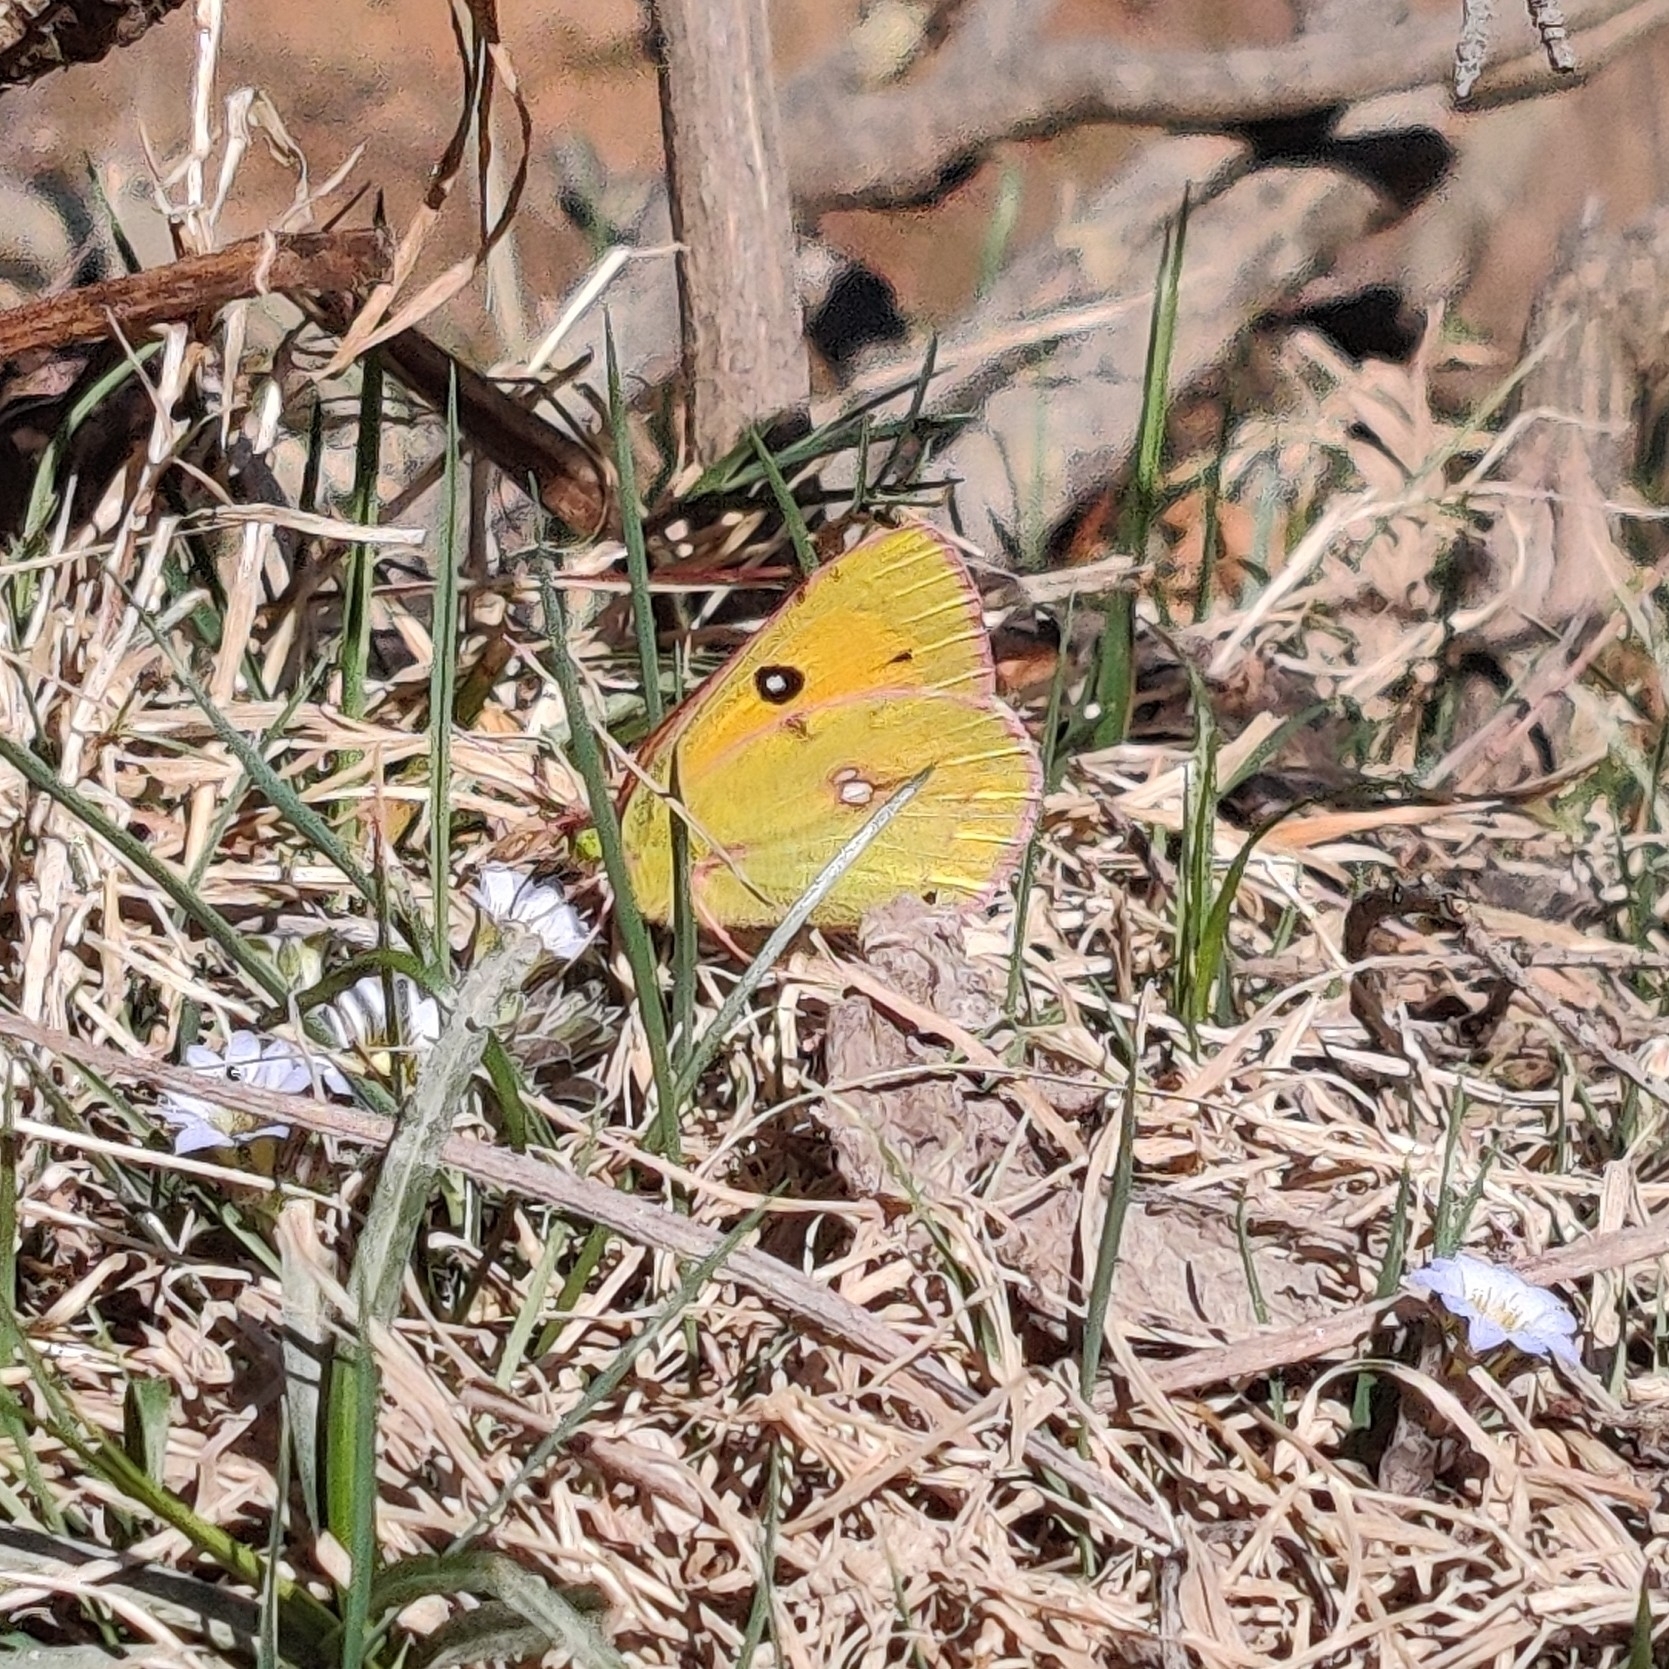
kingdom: Animalia
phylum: Arthropoda
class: Insecta
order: Lepidoptera
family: Pieridae
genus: Colias
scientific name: Colias fieldii
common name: Dark clouded yellow
